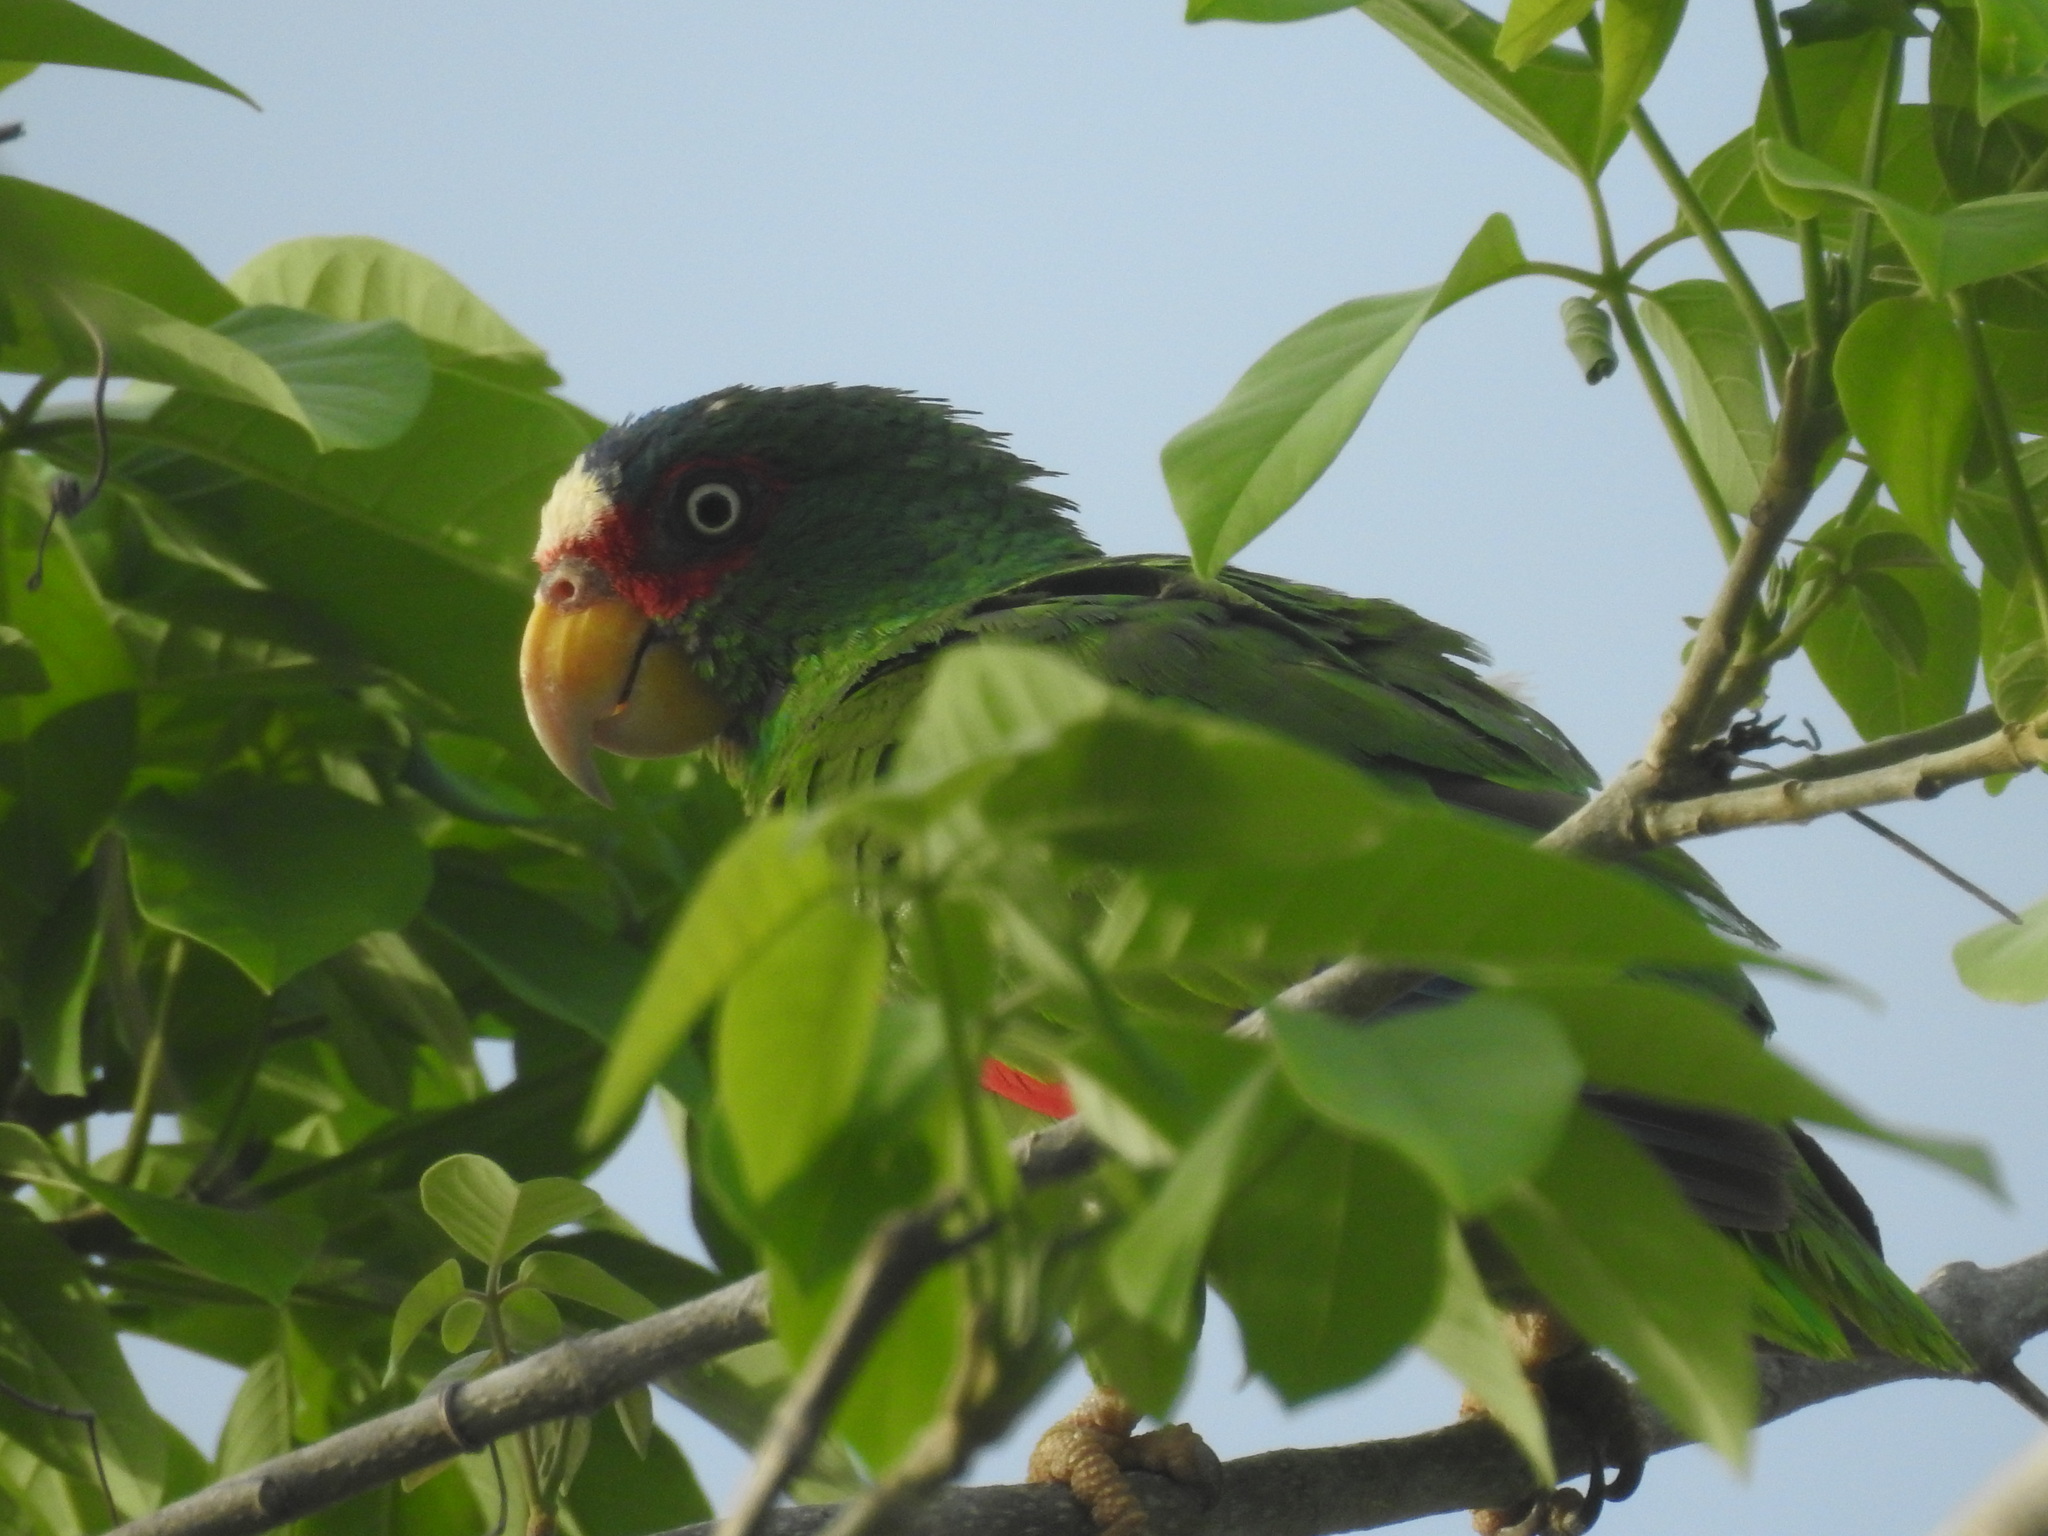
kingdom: Animalia
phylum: Chordata
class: Aves
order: Psittaciformes
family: Psittacidae
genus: Amazona
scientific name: Amazona albifrons
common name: White-fronted amazon
